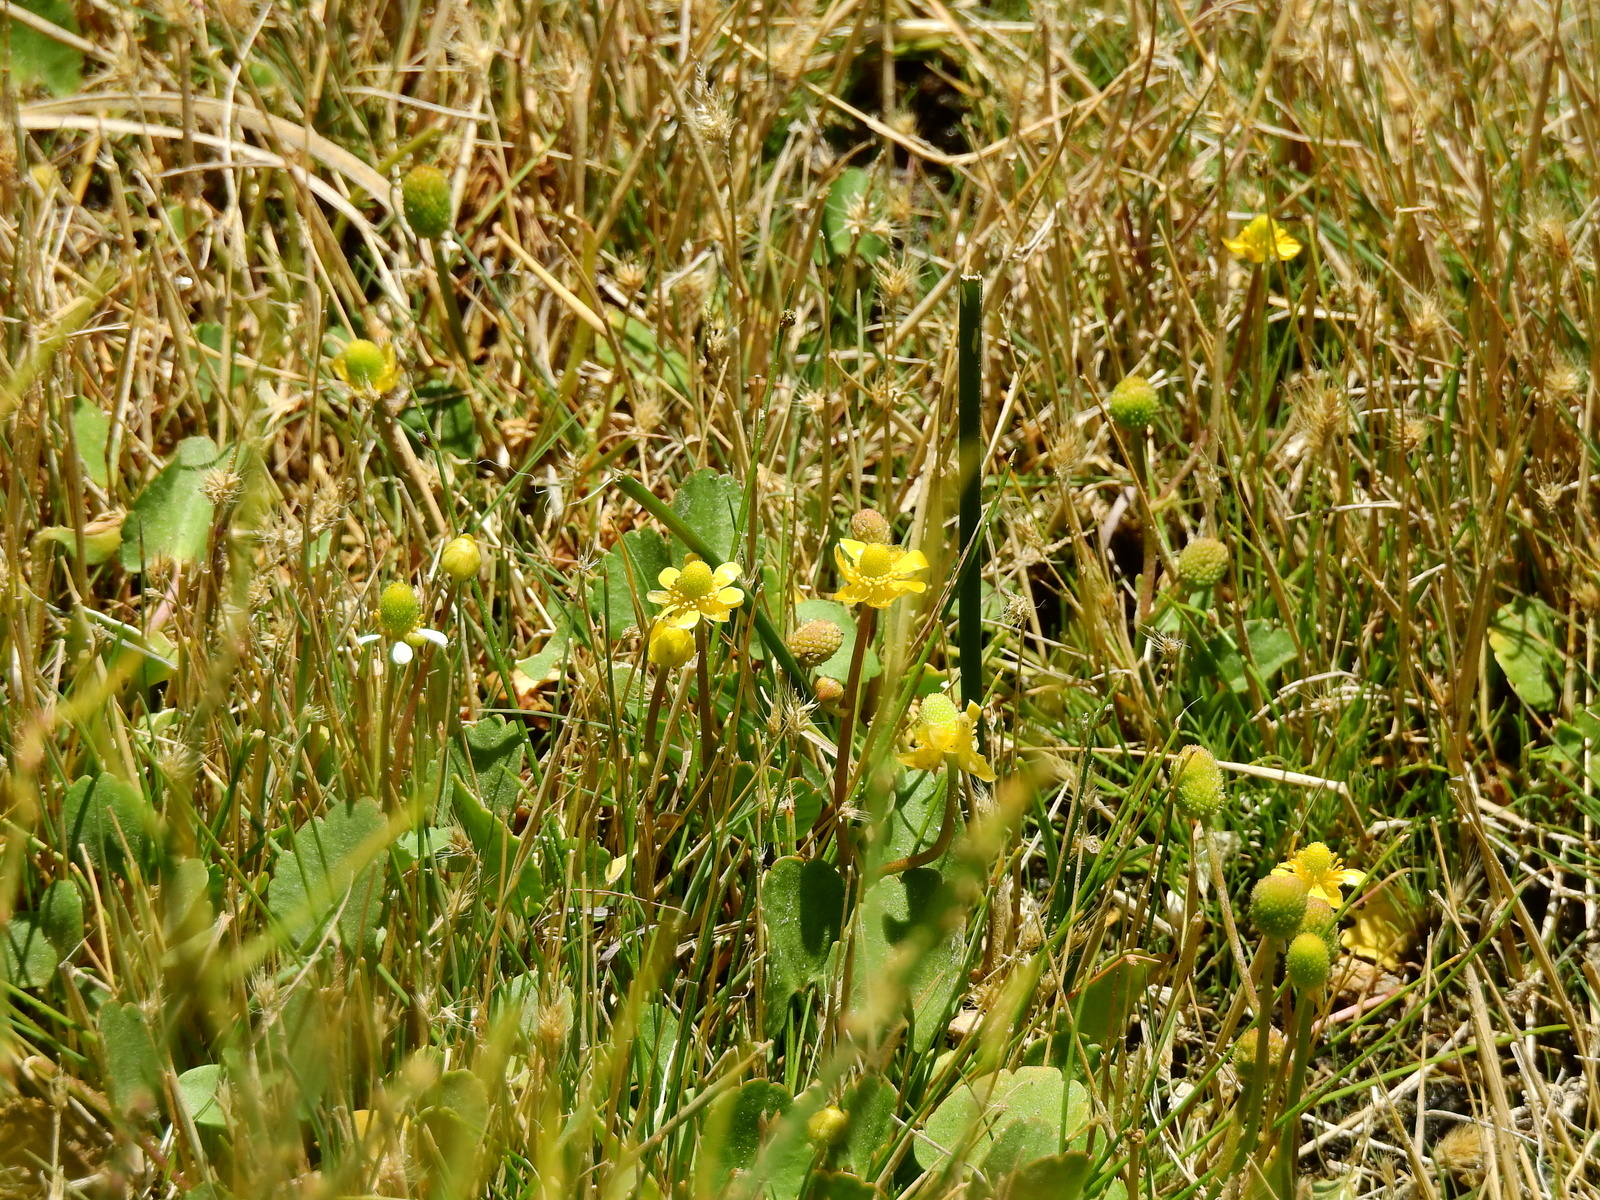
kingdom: Plantae
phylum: Tracheophyta
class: Magnoliopsida
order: Ranunculales
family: Ranunculaceae
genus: Halerpestes
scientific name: Halerpestes cymbalaria
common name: Seaside crowfoot
